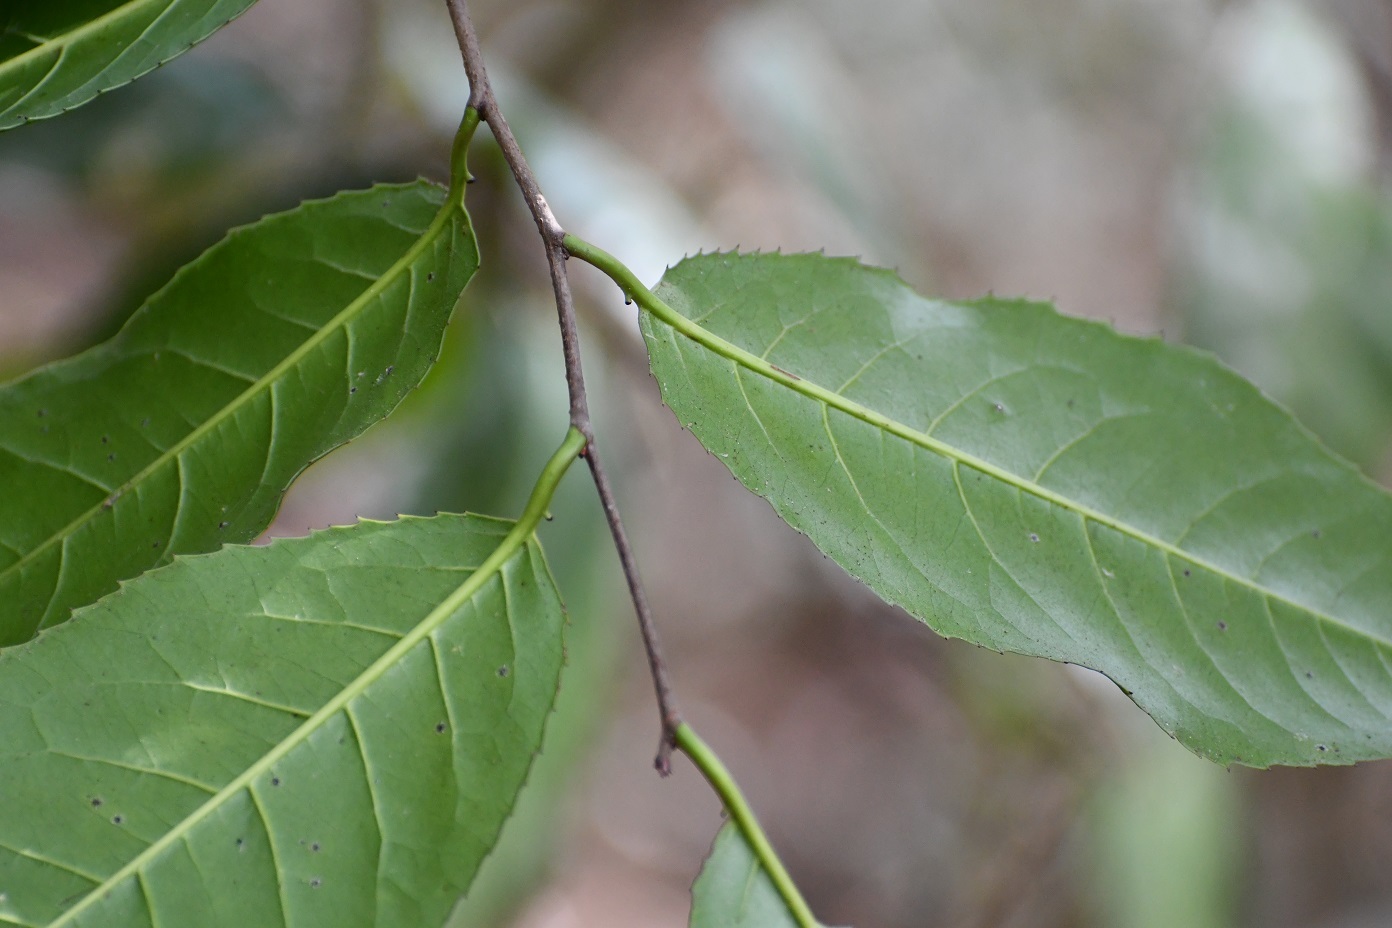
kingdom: Plantae
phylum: Tracheophyta
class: Magnoliopsida
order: Rosales
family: Rosaceae
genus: Prunus
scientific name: Prunus salasii
